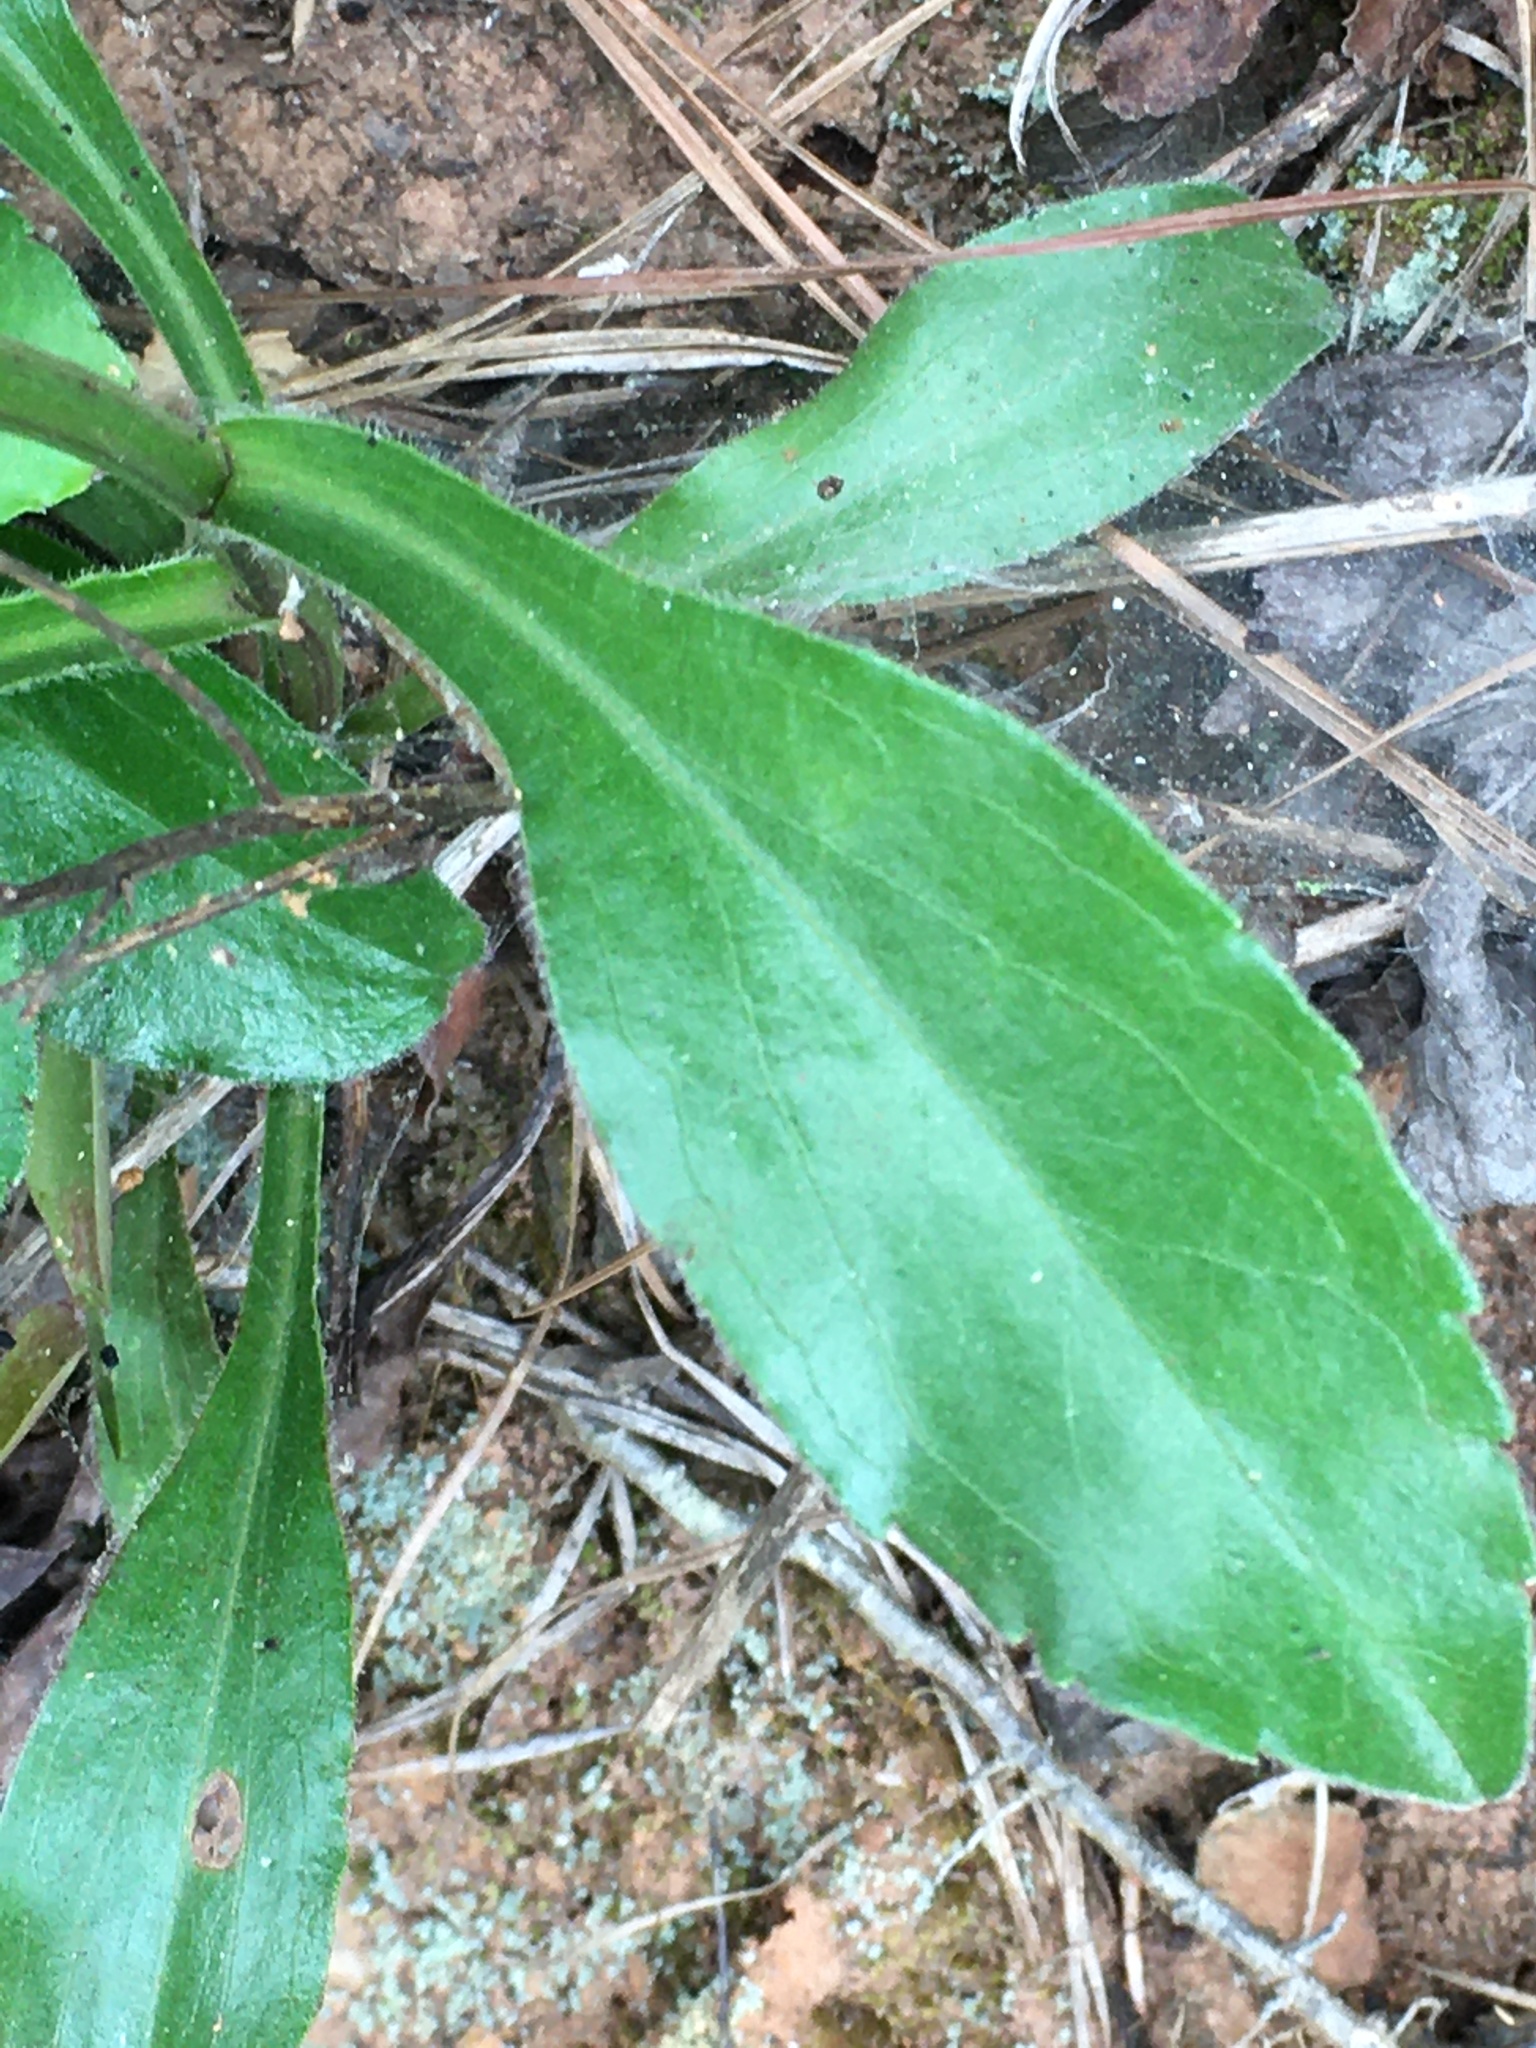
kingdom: Plantae
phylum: Tracheophyta
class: Magnoliopsida
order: Asterales
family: Asteraceae
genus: Sericocarpus
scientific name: Sericocarpus asteroides
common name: Toothed white-top aster
